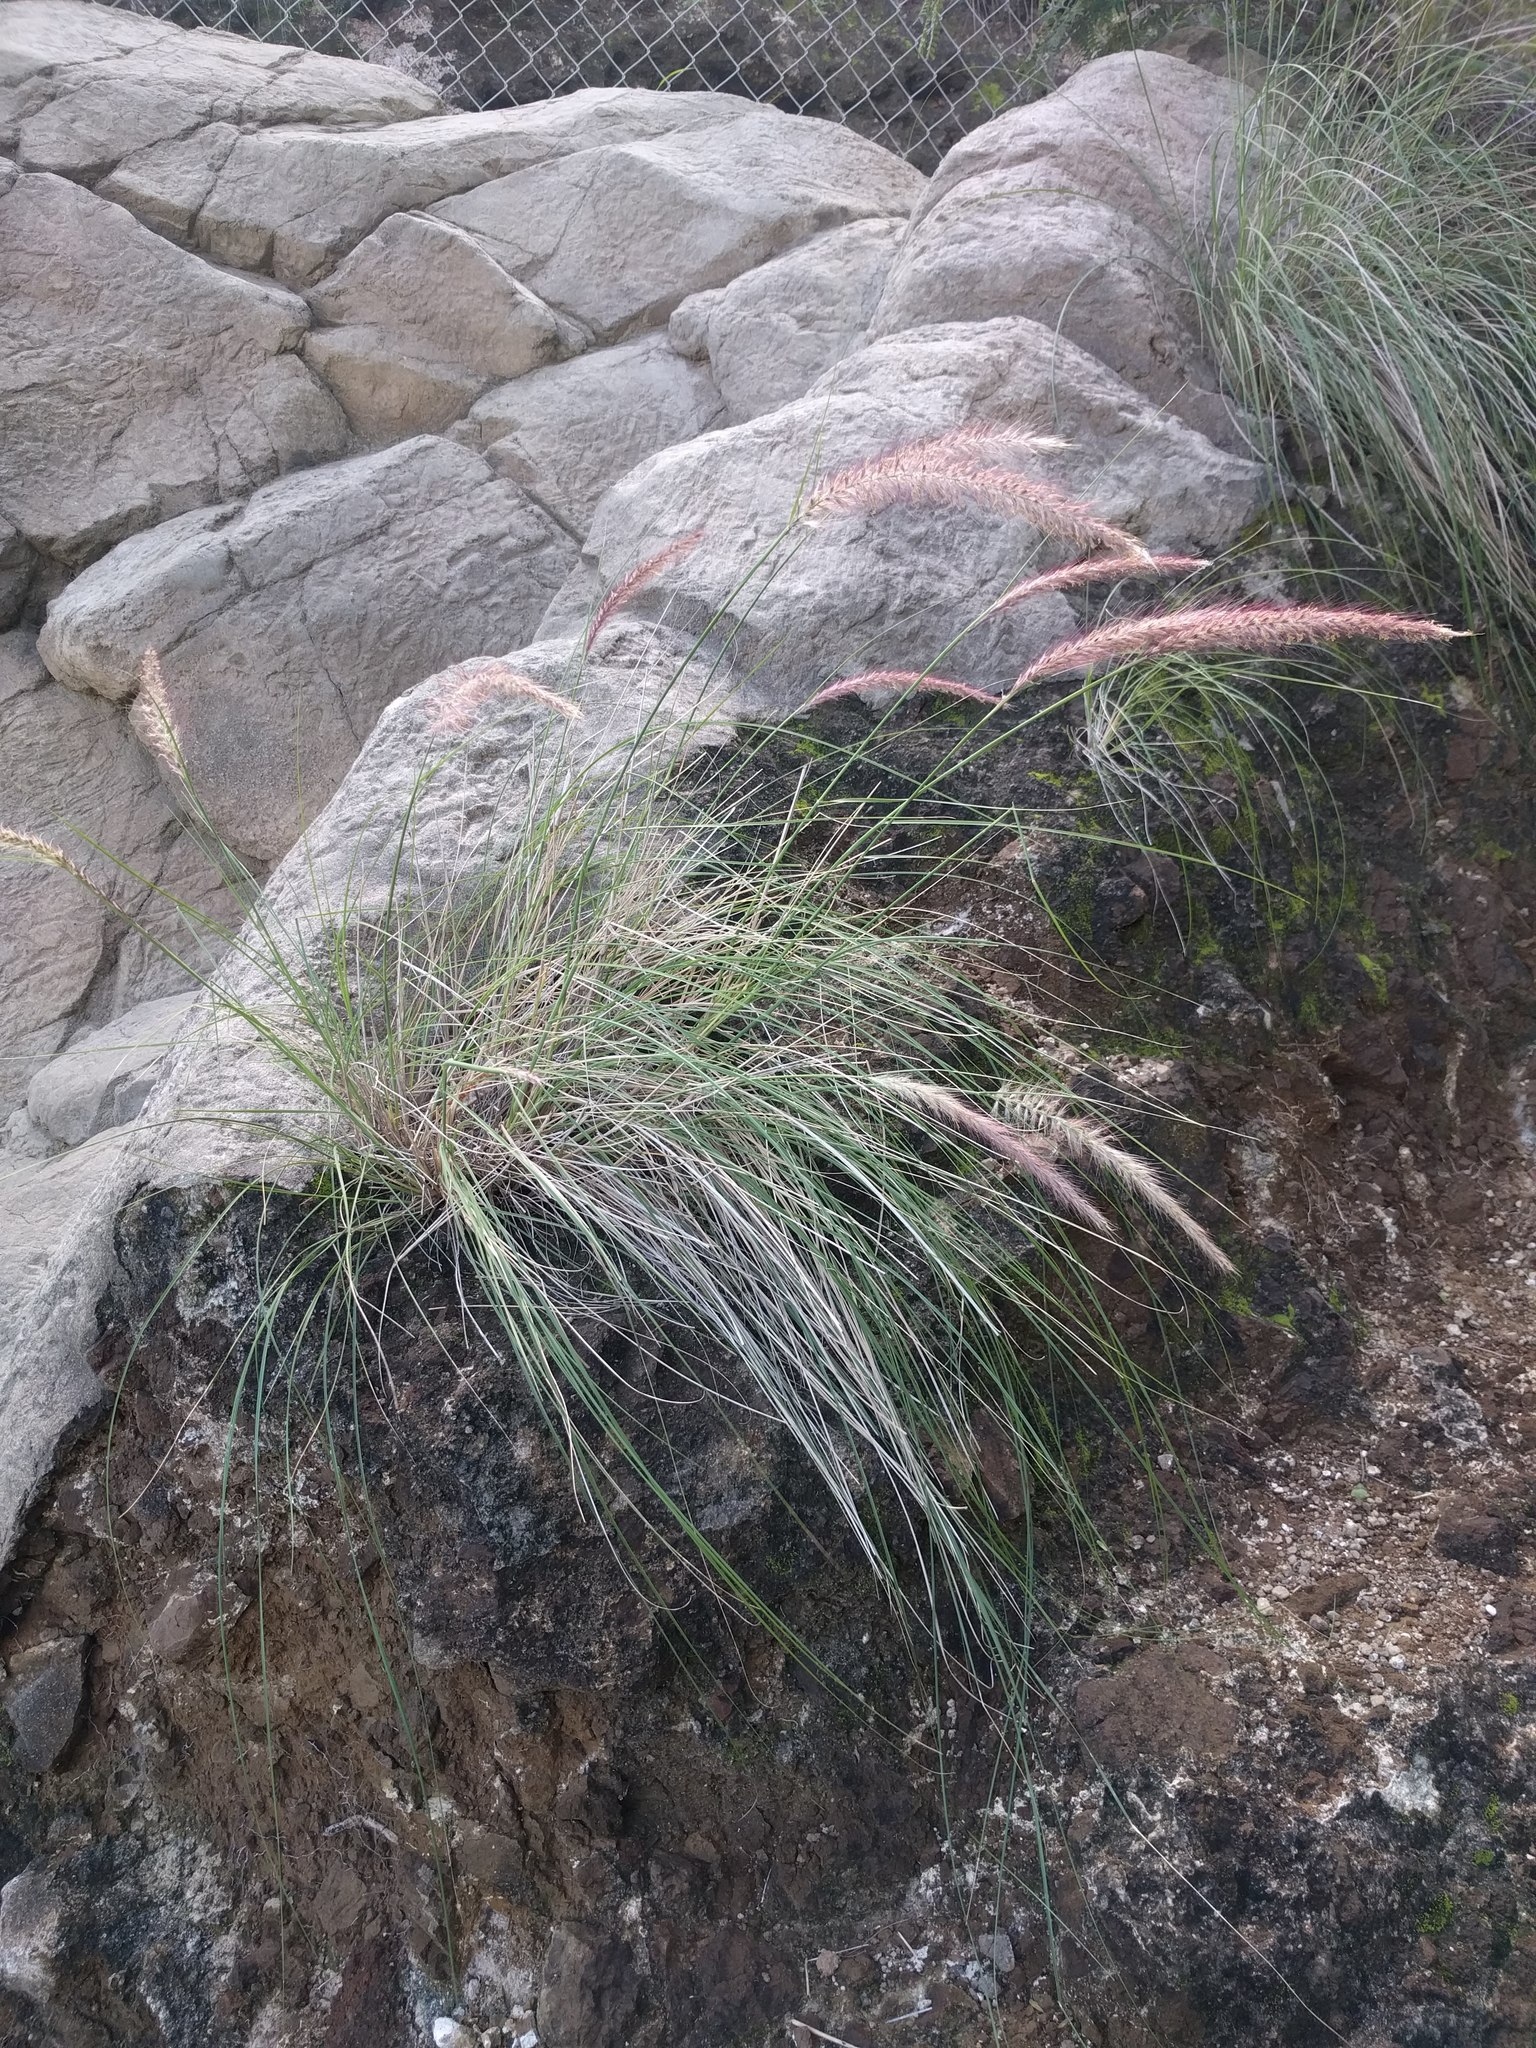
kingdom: Plantae
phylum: Tracheophyta
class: Liliopsida
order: Poales
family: Poaceae
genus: Cenchrus
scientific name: Cenchrus setaceus
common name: Crimson fountaingrass
